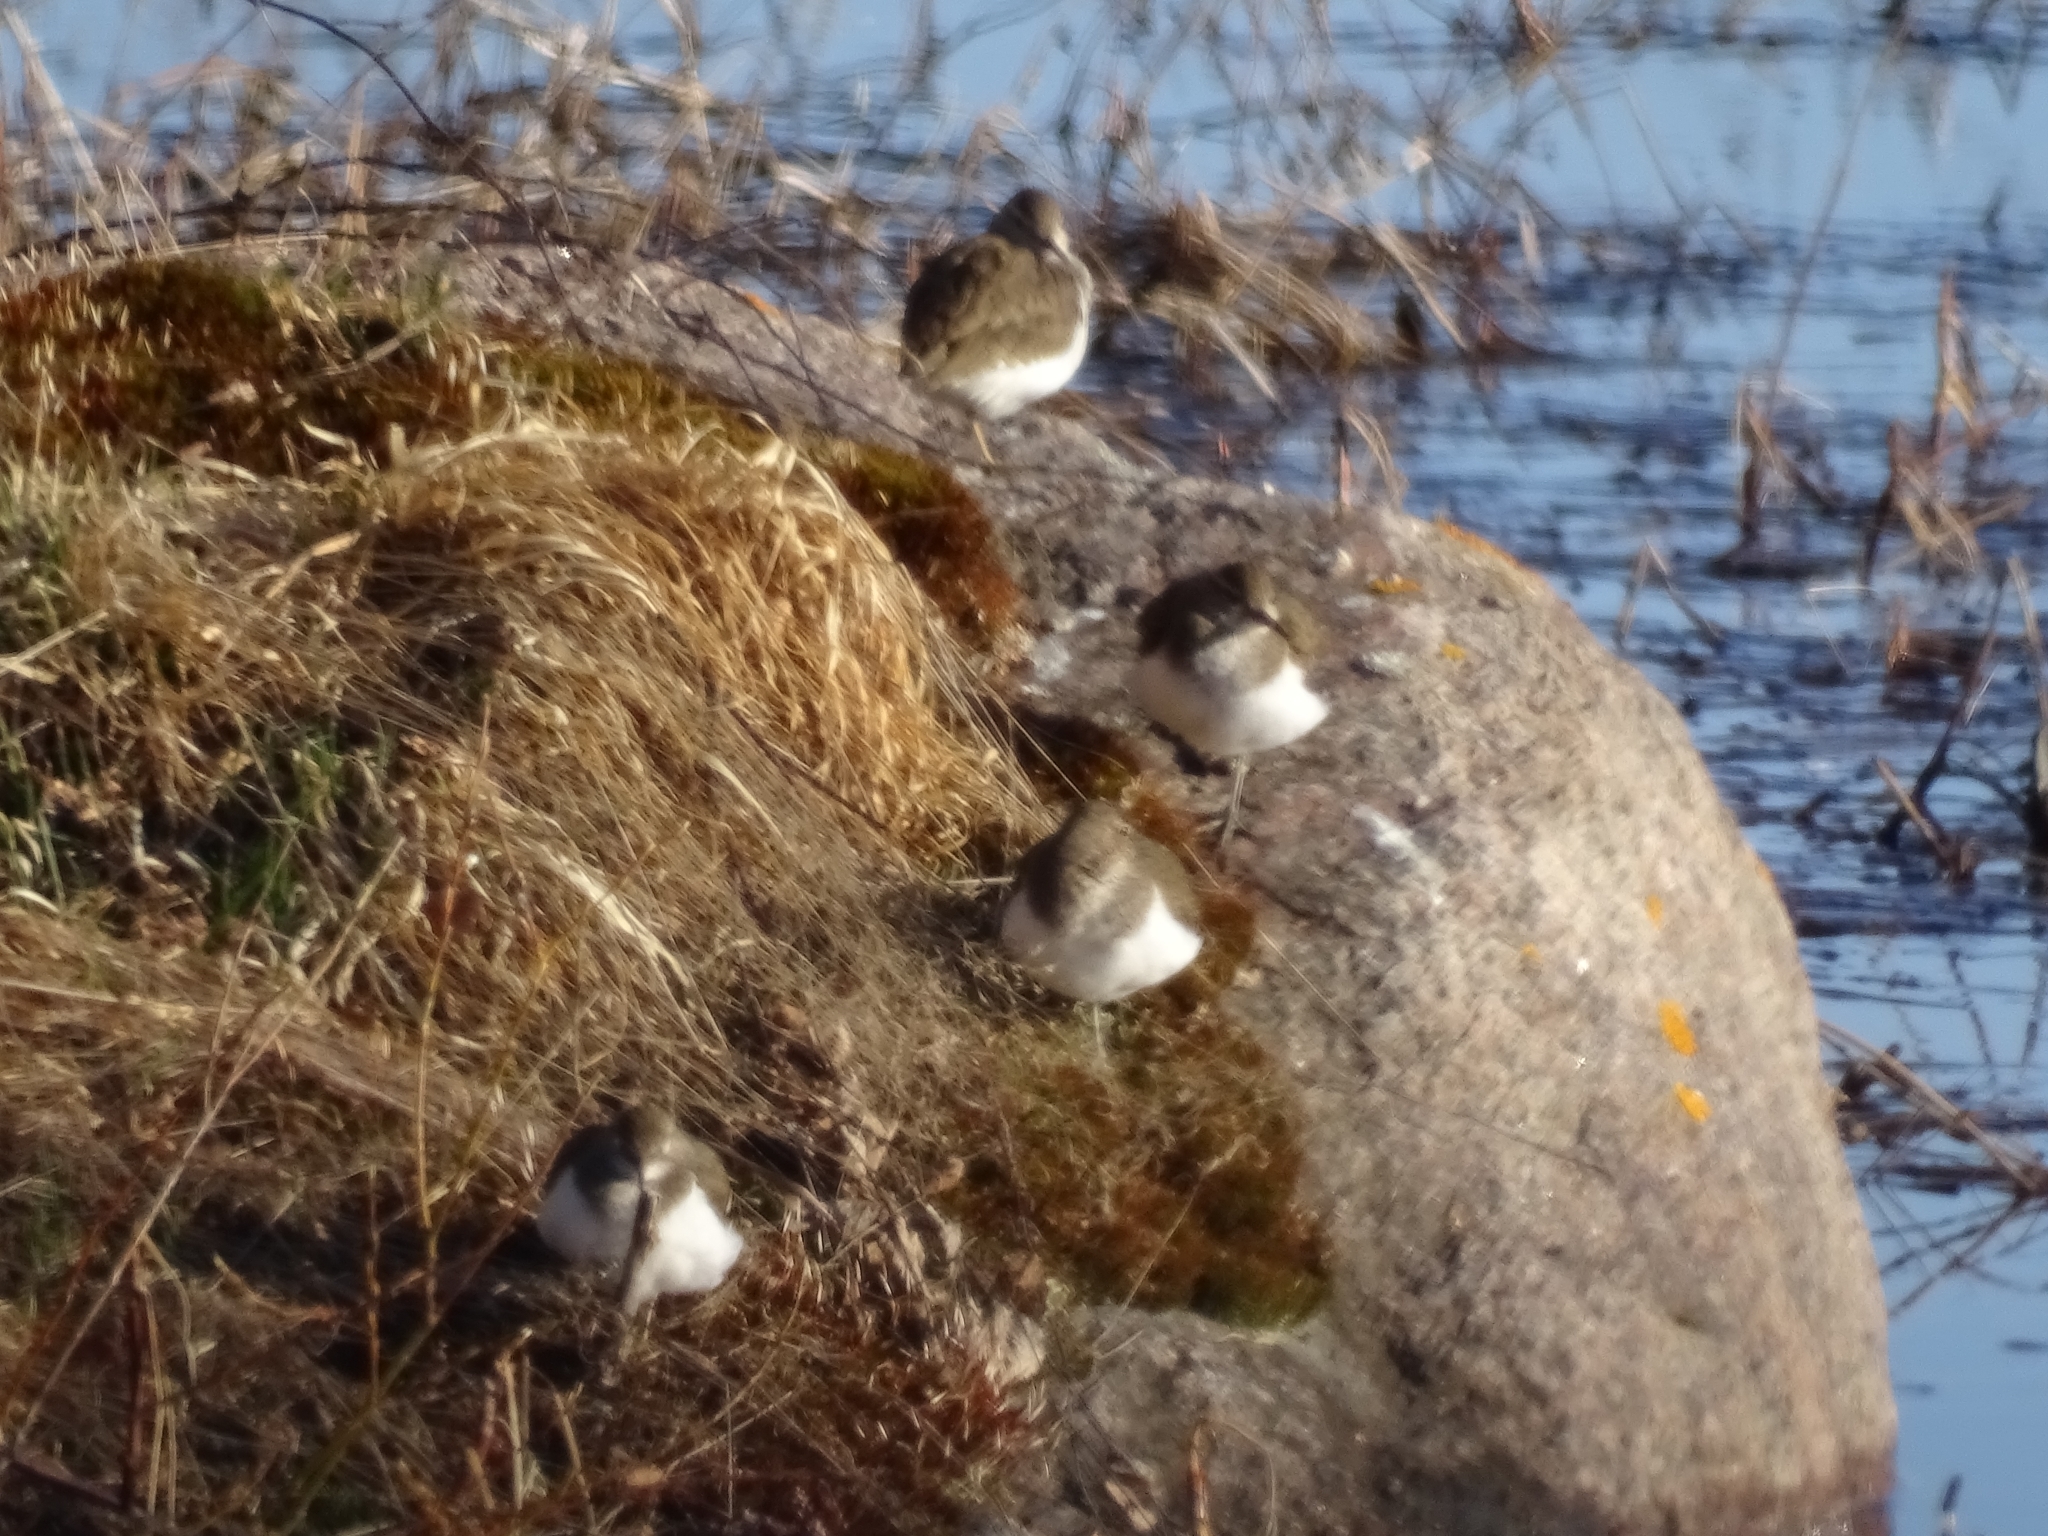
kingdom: Animalia
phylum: Chordata
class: Aves
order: Charadriiformes
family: Scolopacidae
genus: Actitis
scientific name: Actitis hypoleucos
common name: Common sandpiper
